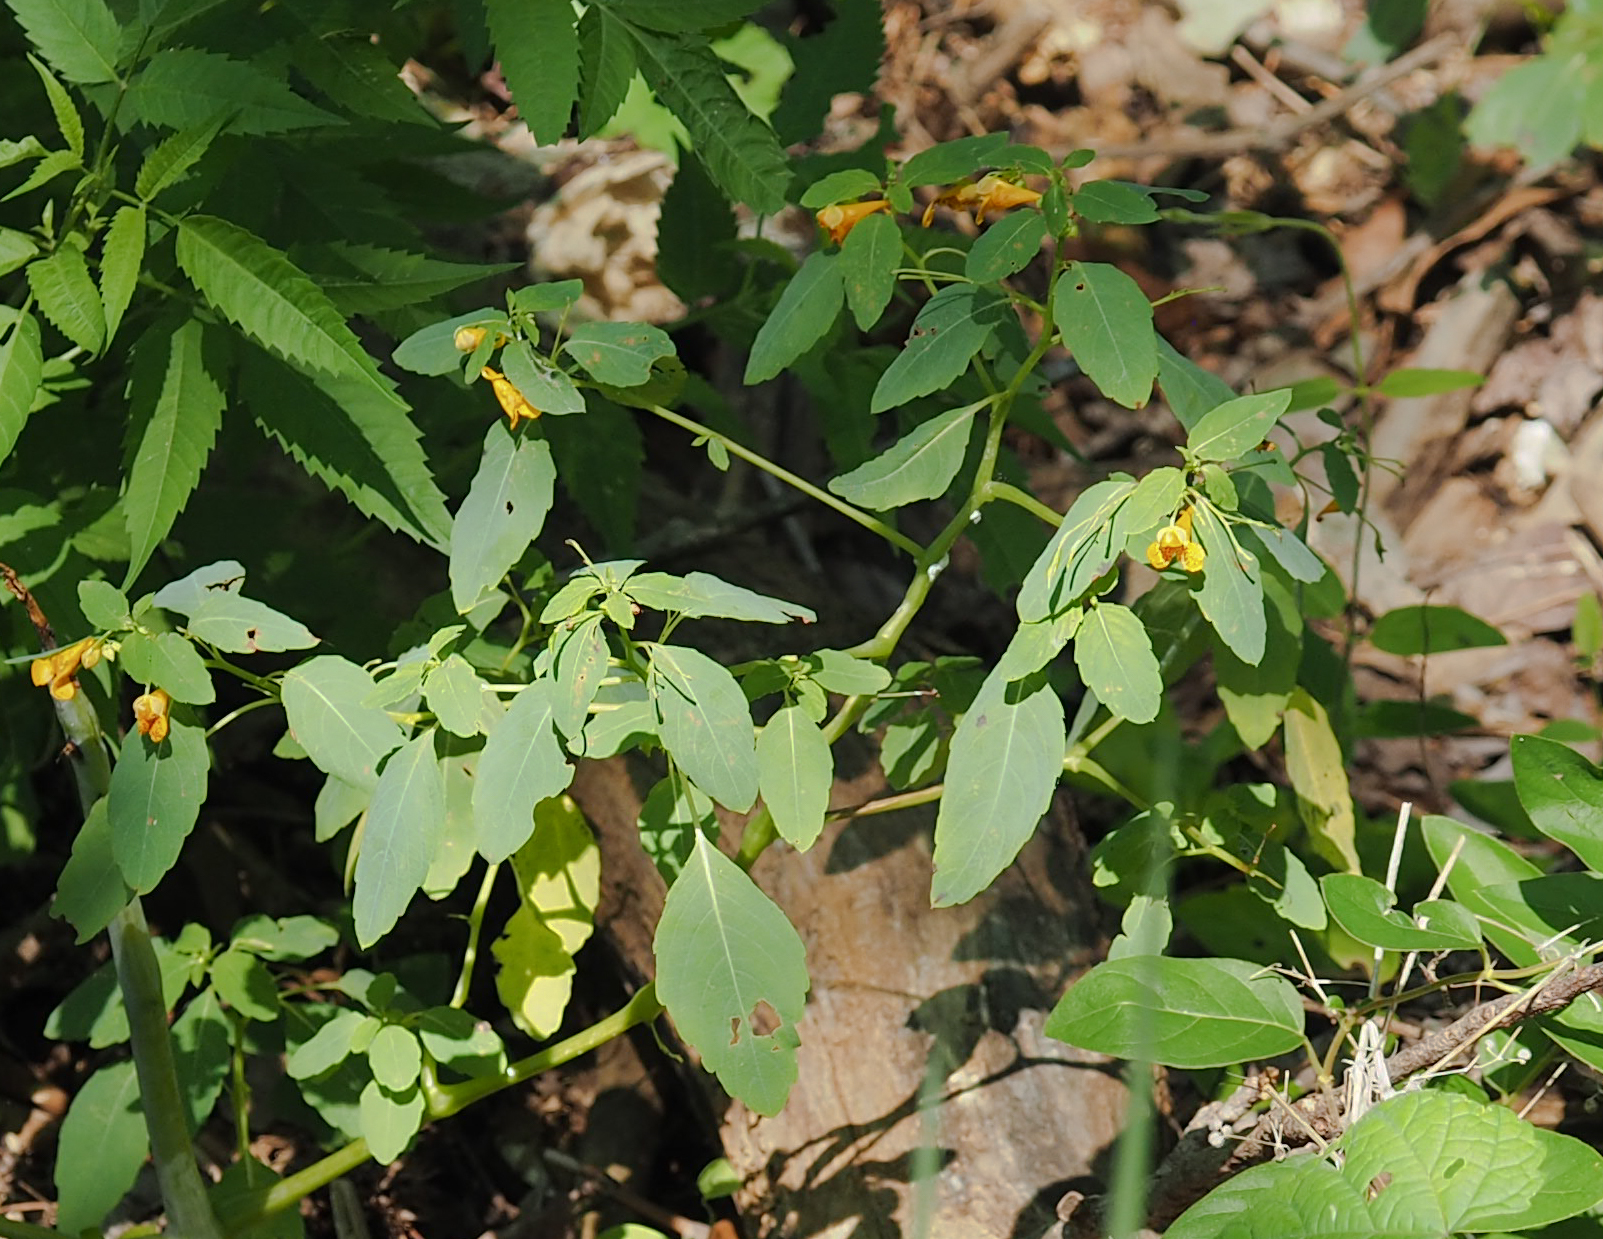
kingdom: Plantae
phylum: Tracheophyta
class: Magnoliopsida
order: Ericales
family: Balsaminaceae
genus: Impatiens
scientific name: Impatiens capensis
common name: Orange balsam
